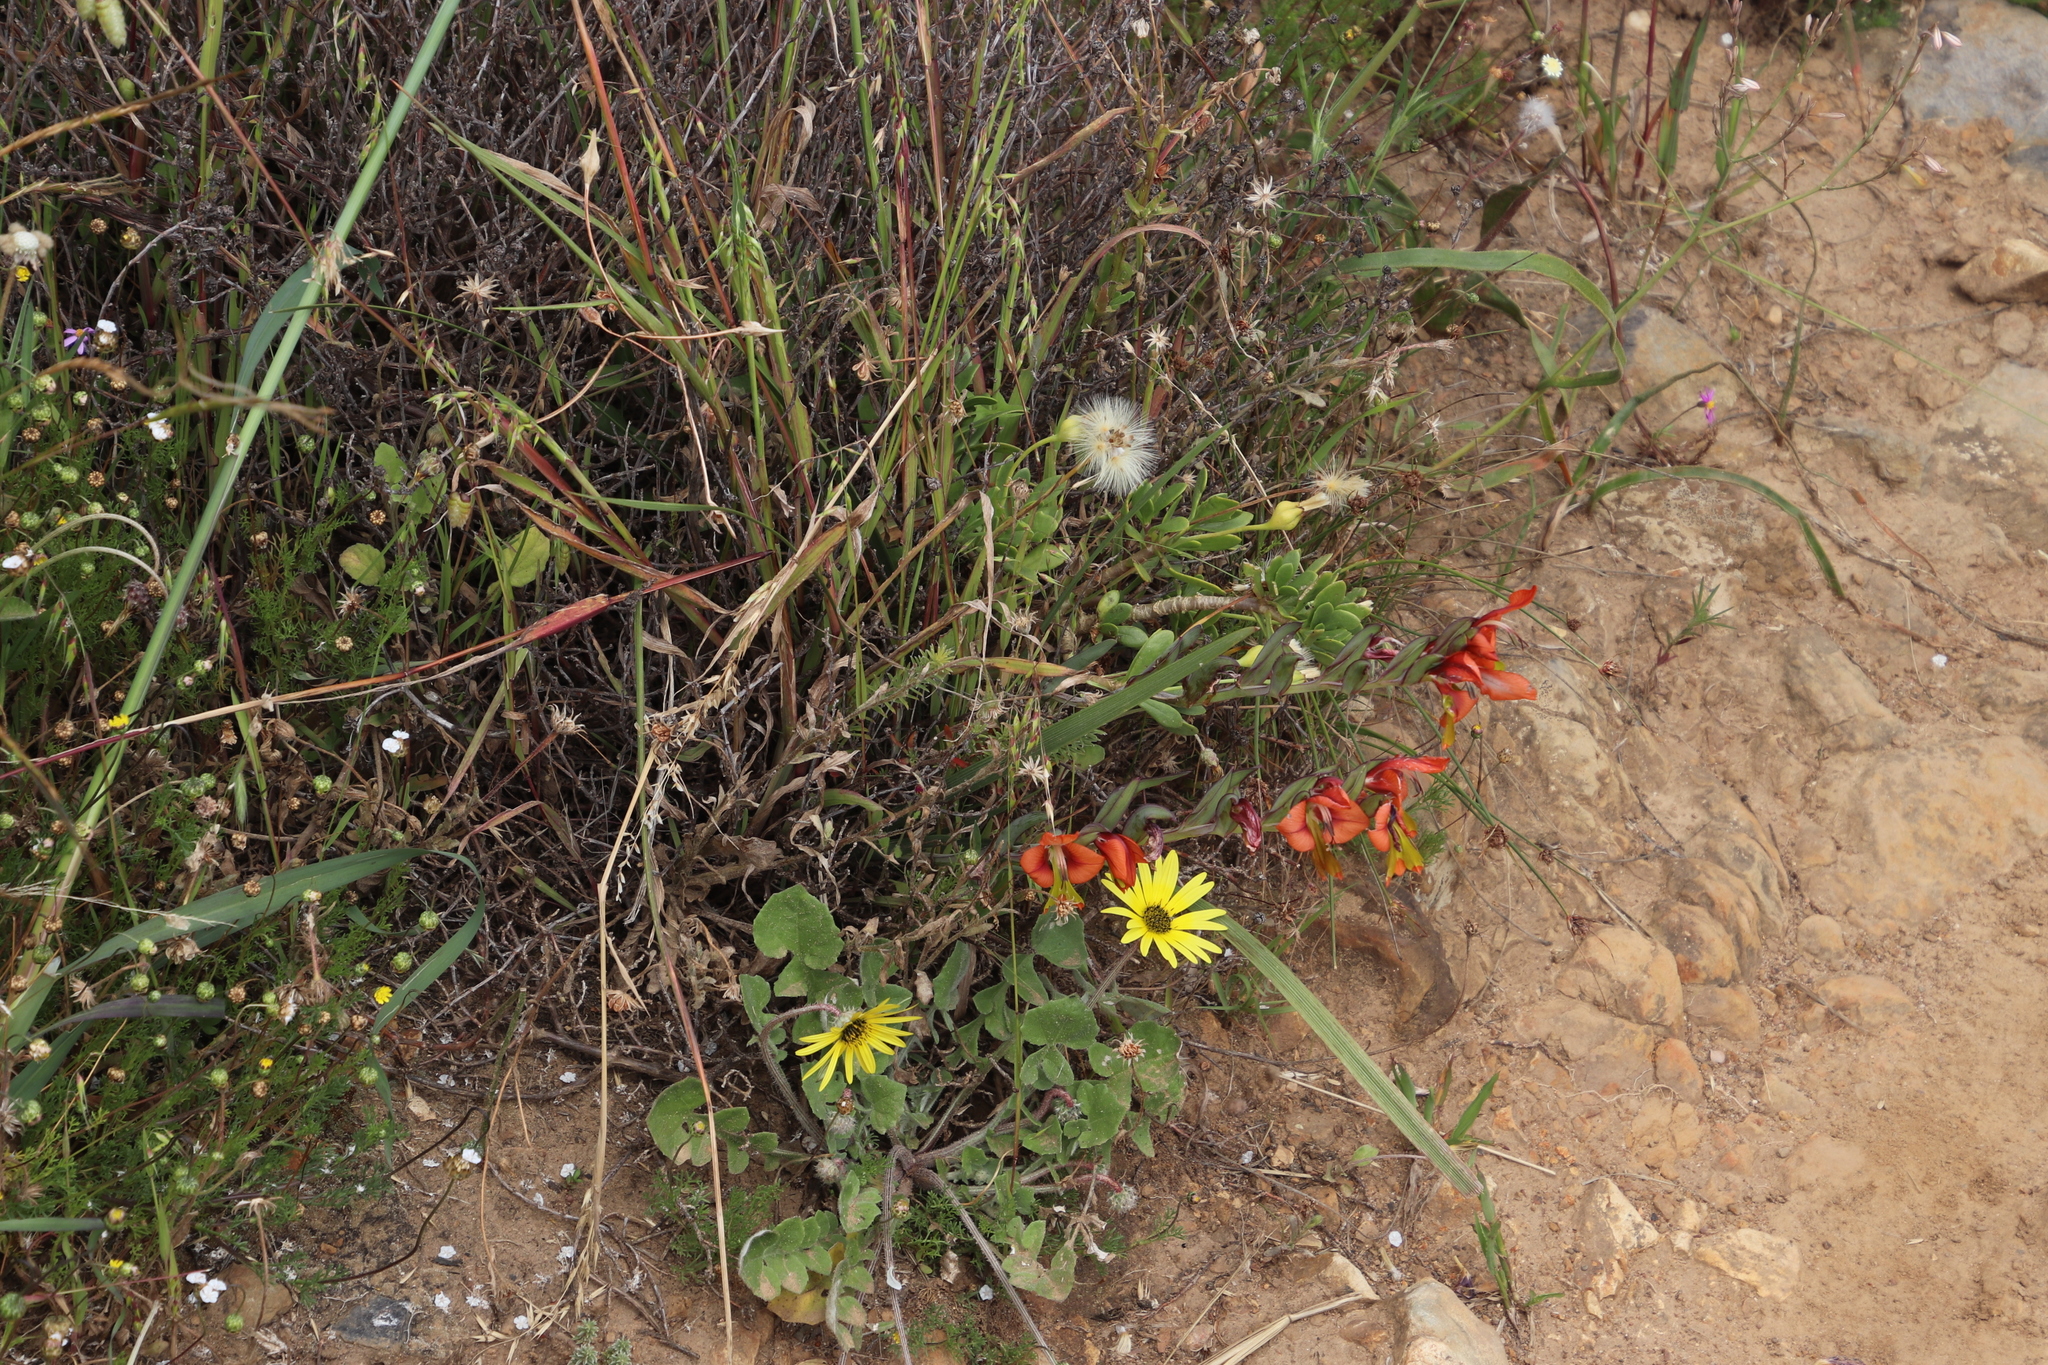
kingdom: Plantae
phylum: Tracheophyta
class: Liliopsida
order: Asparagales
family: Iridaceae
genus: Gladiolus
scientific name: Gladiolus alatus
